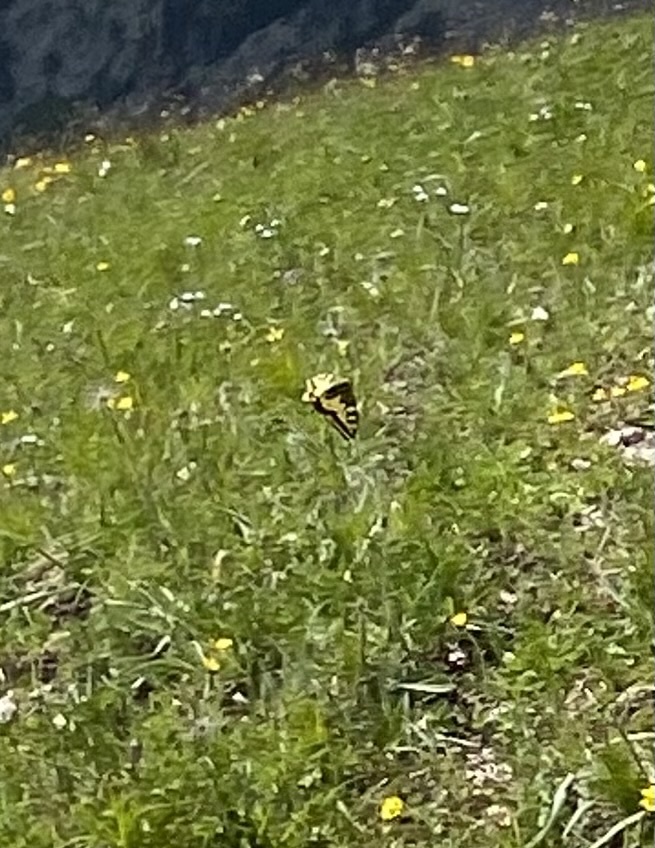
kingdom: Animalia
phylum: Arthropoda
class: Insecta
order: Lepidoptera
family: Papilionidae
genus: Papilio
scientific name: Papilio machaon
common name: Swallowtail
